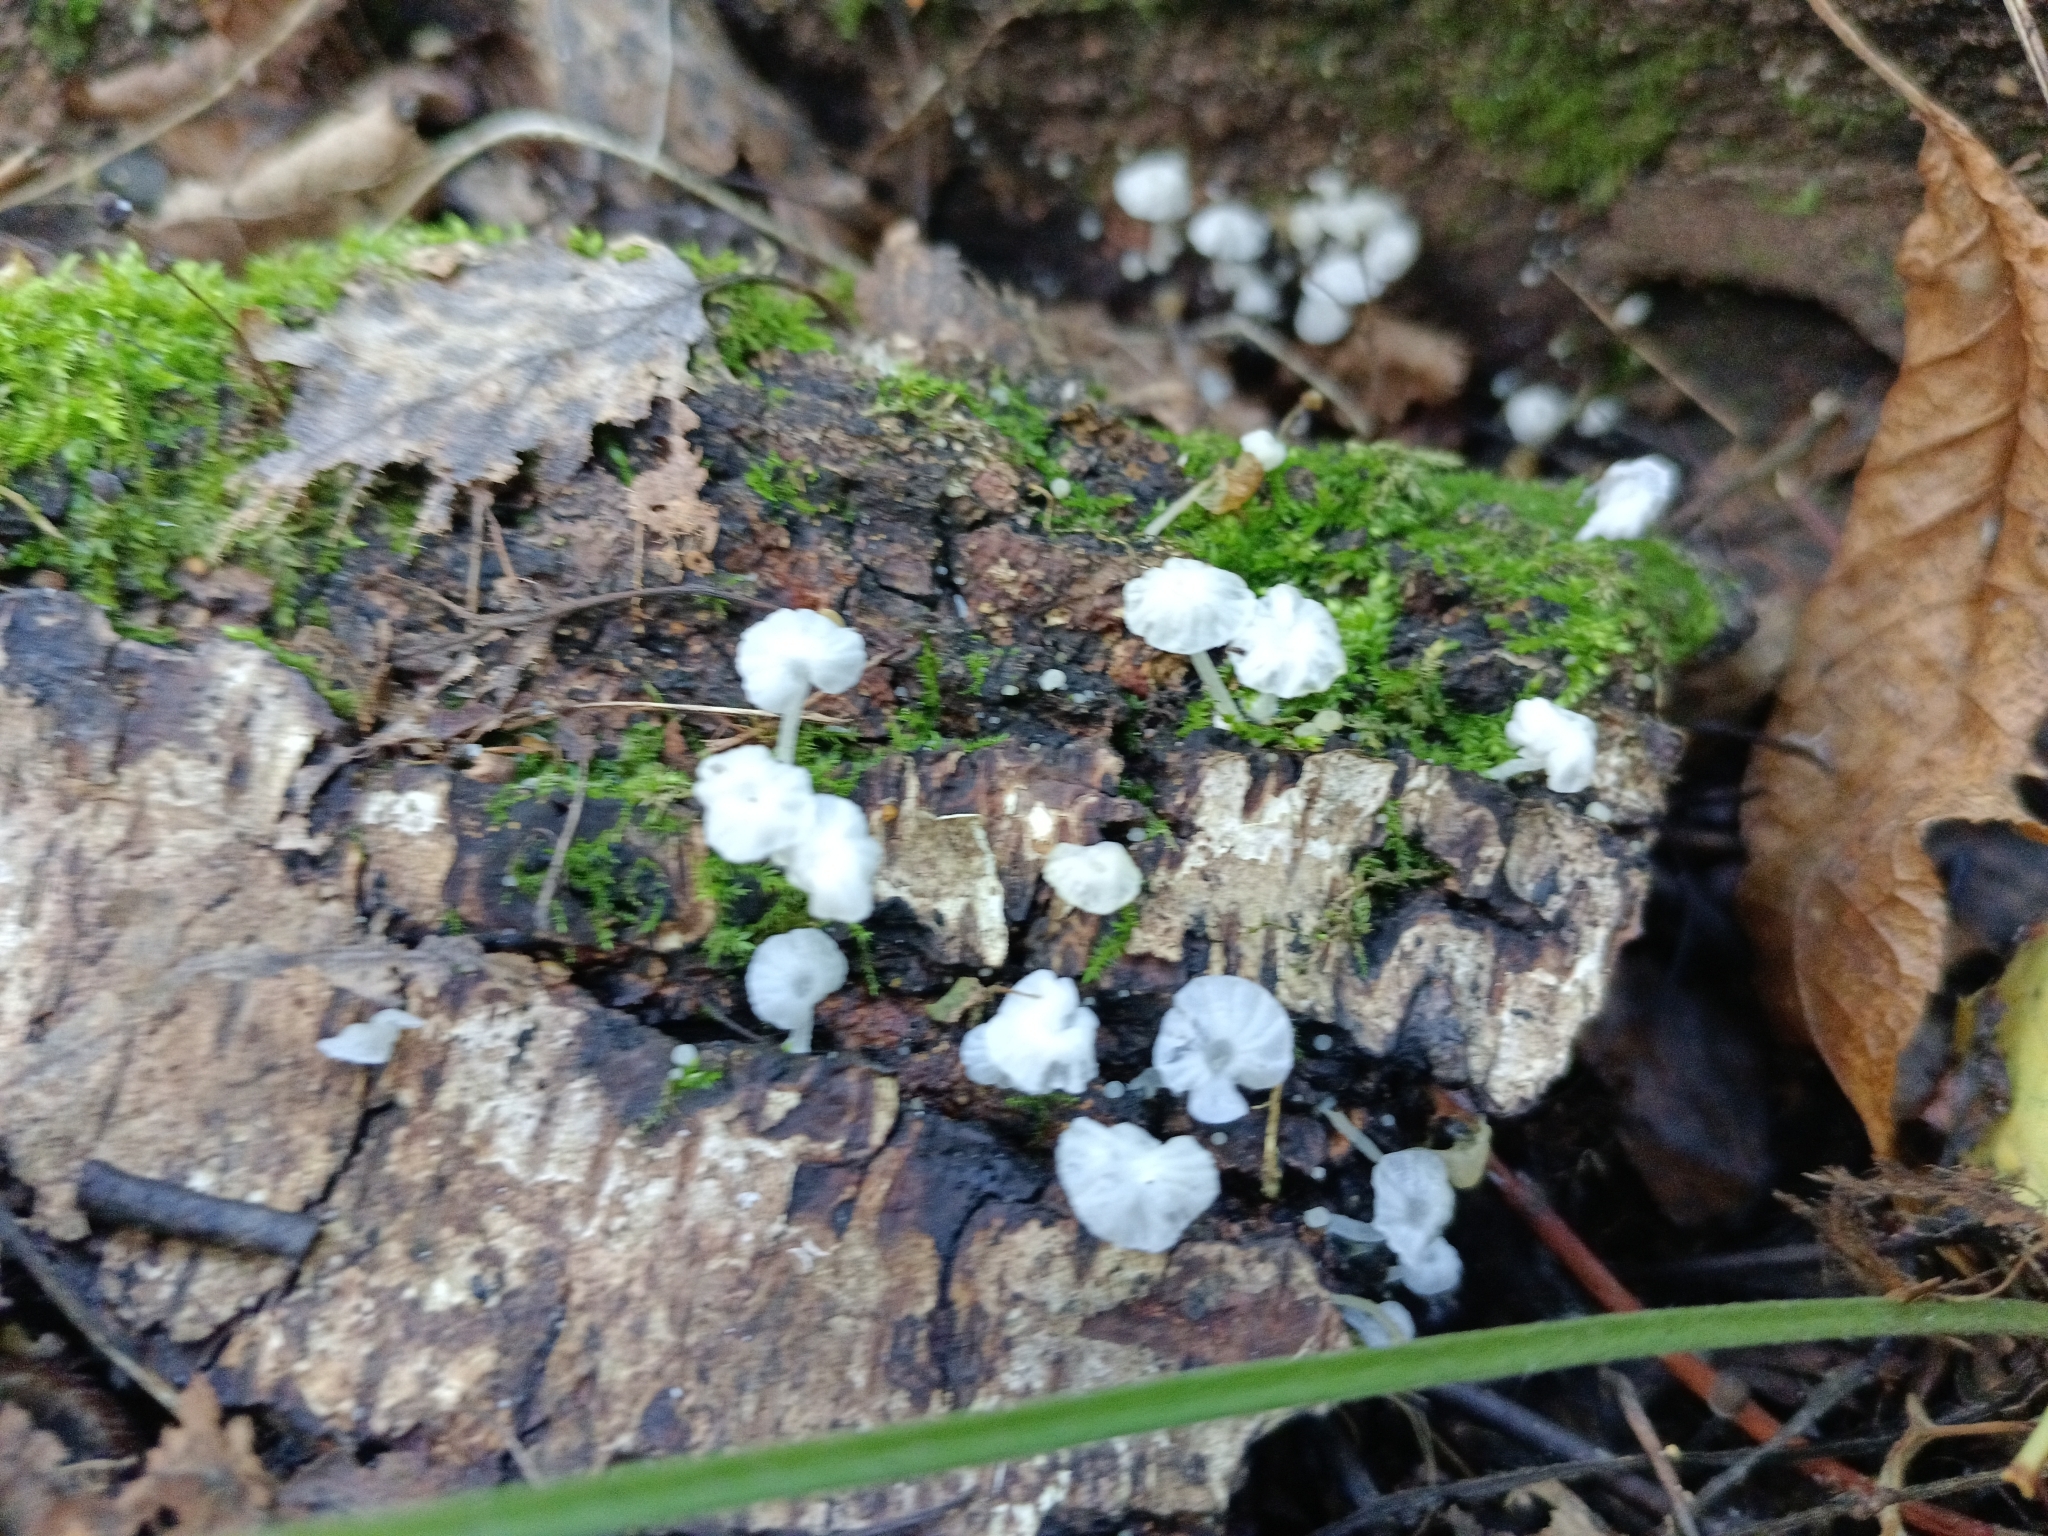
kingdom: Fungi
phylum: Basidiomycota
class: Agaricomycetes
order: Agaricales
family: Tricholomataceae
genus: Delicatula
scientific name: Delicatula integrella
